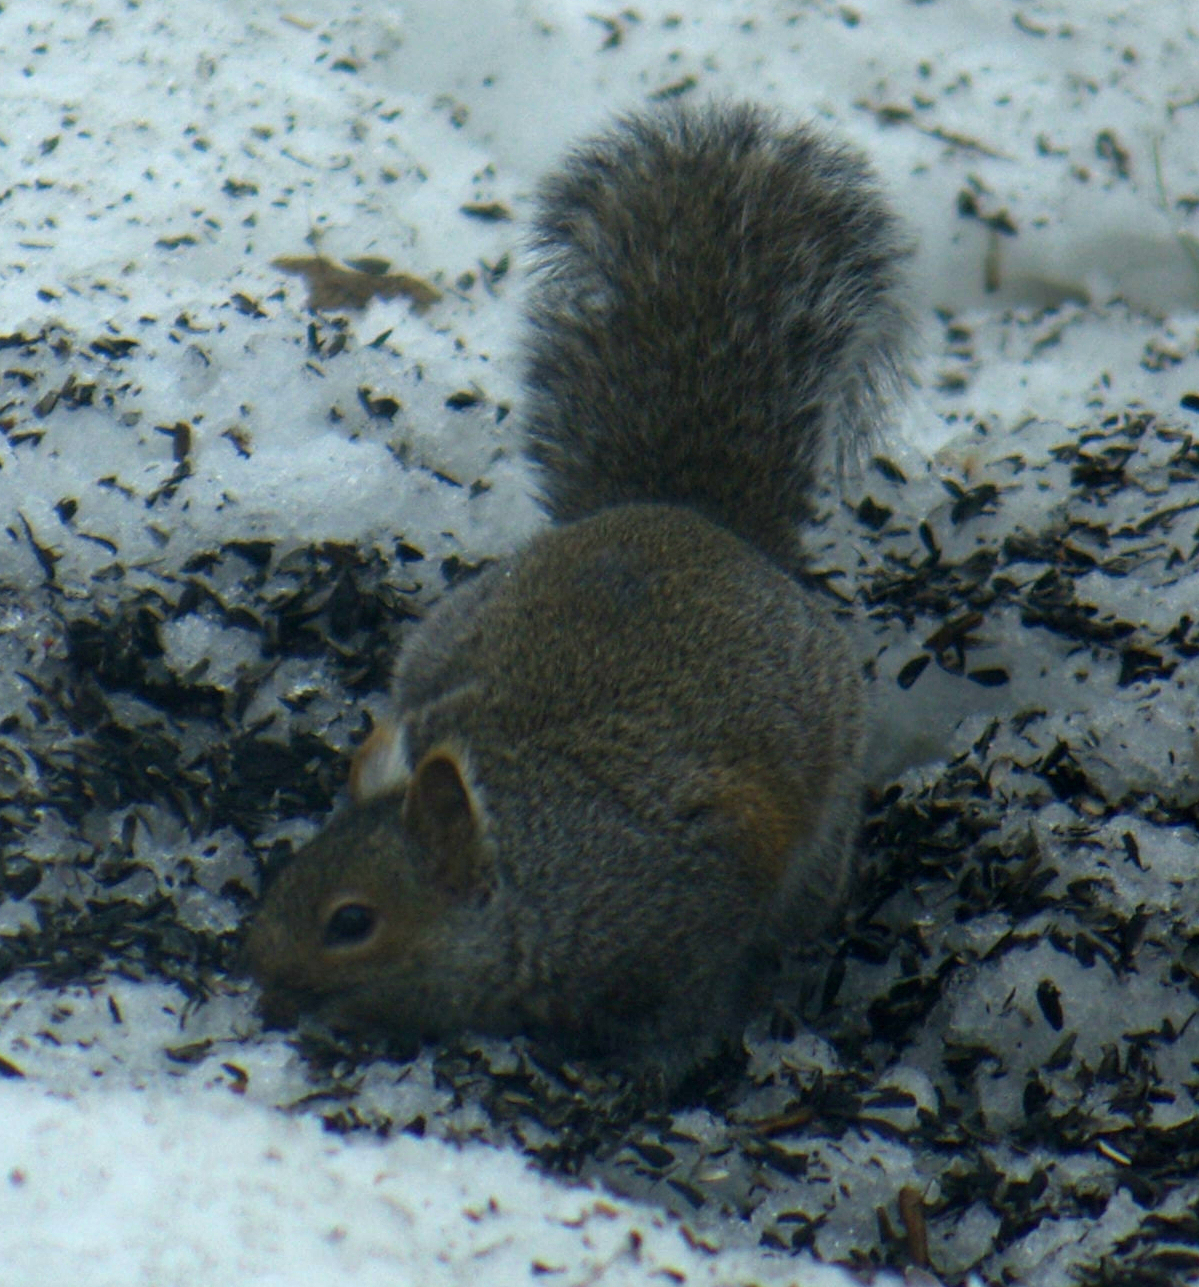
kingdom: Animalia
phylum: Chordata
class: Mammalia
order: Rodentia
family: Sciuridae
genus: Sciurus
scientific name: Sciurus carolinensis
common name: Eastern gray squirrel
